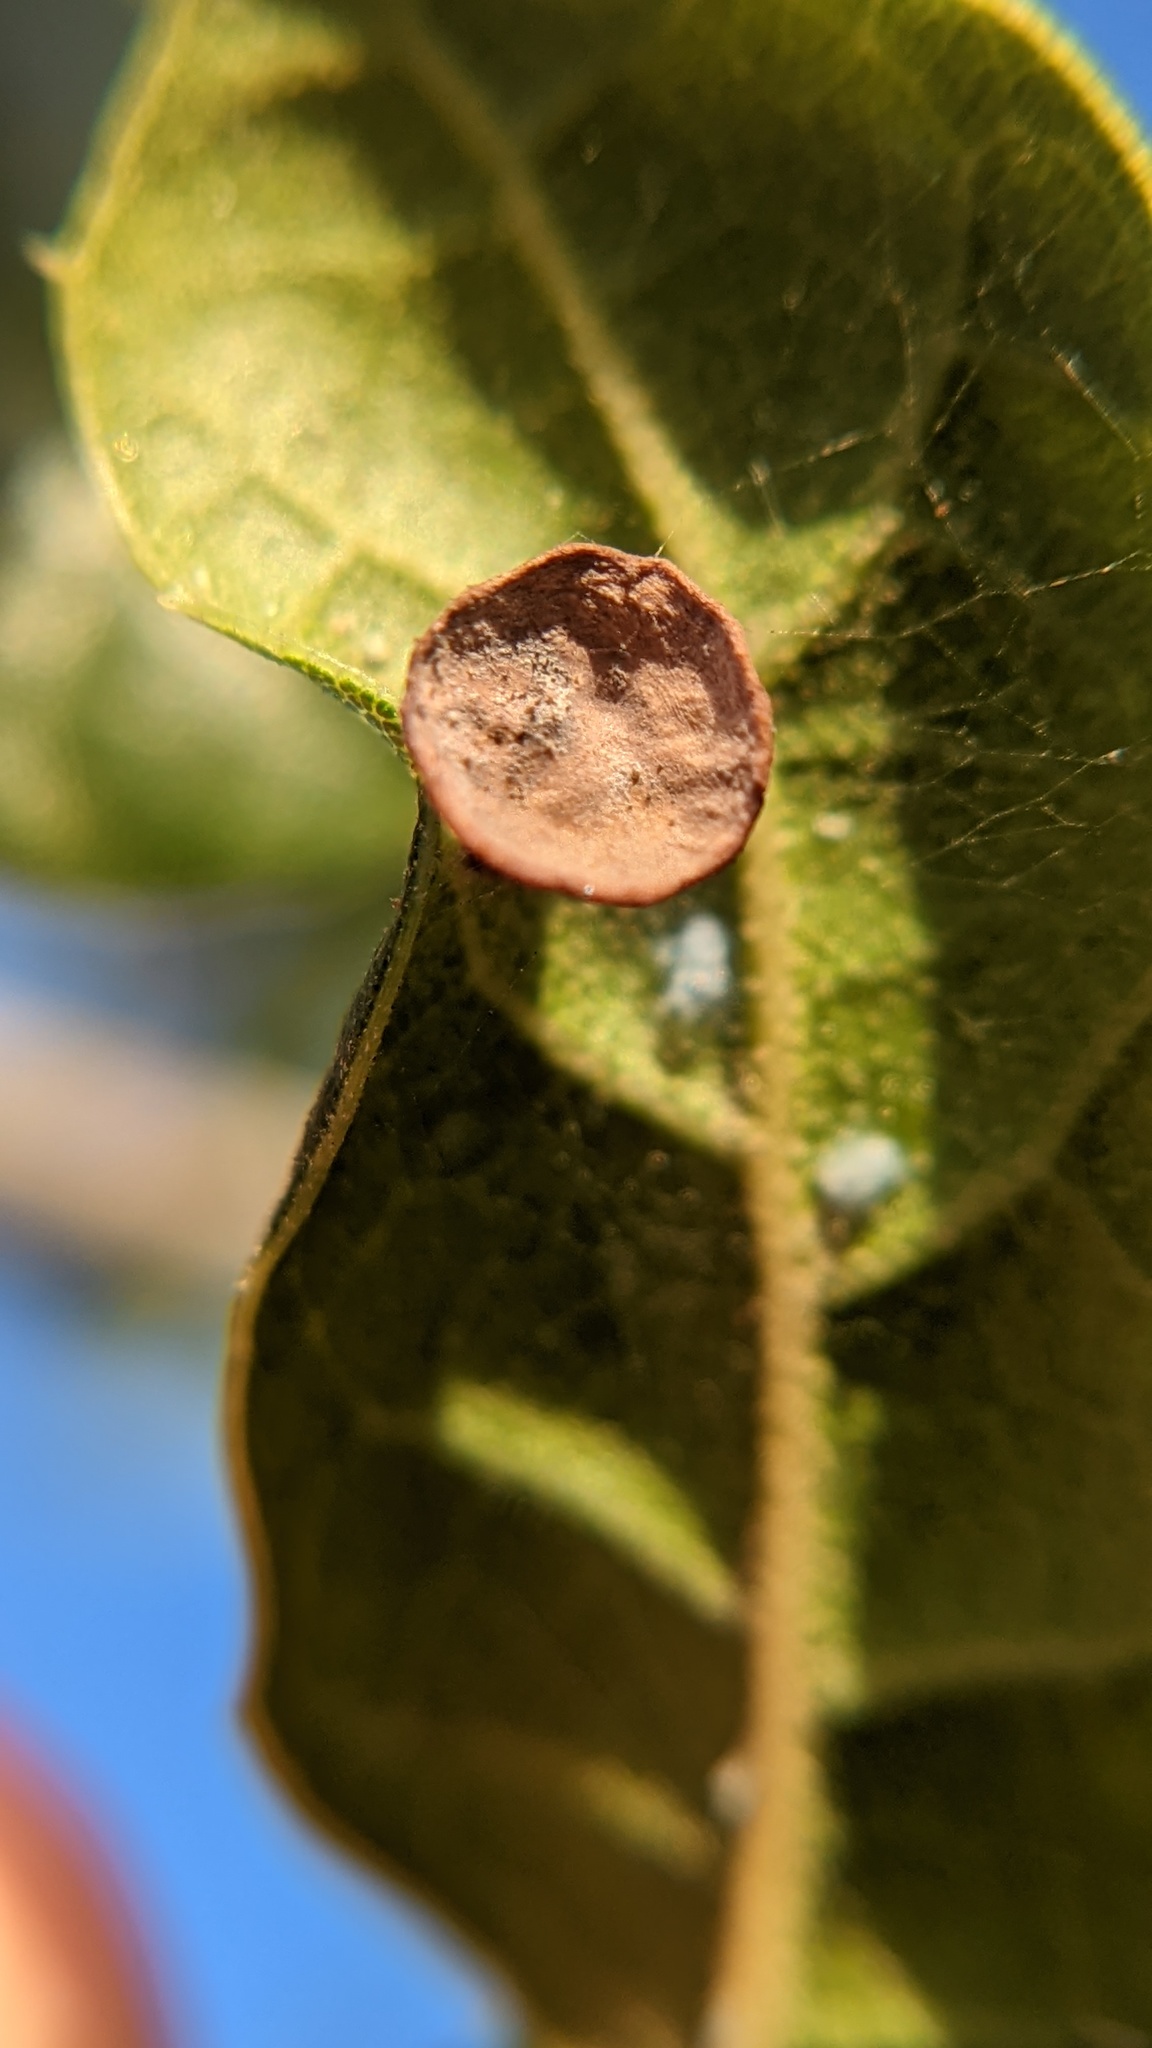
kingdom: Animalia
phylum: Arthropoda
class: Insecta
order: Hymenoptera
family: Cynipidae
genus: Amphibolips
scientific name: Amphibolips quercuspomiformis
